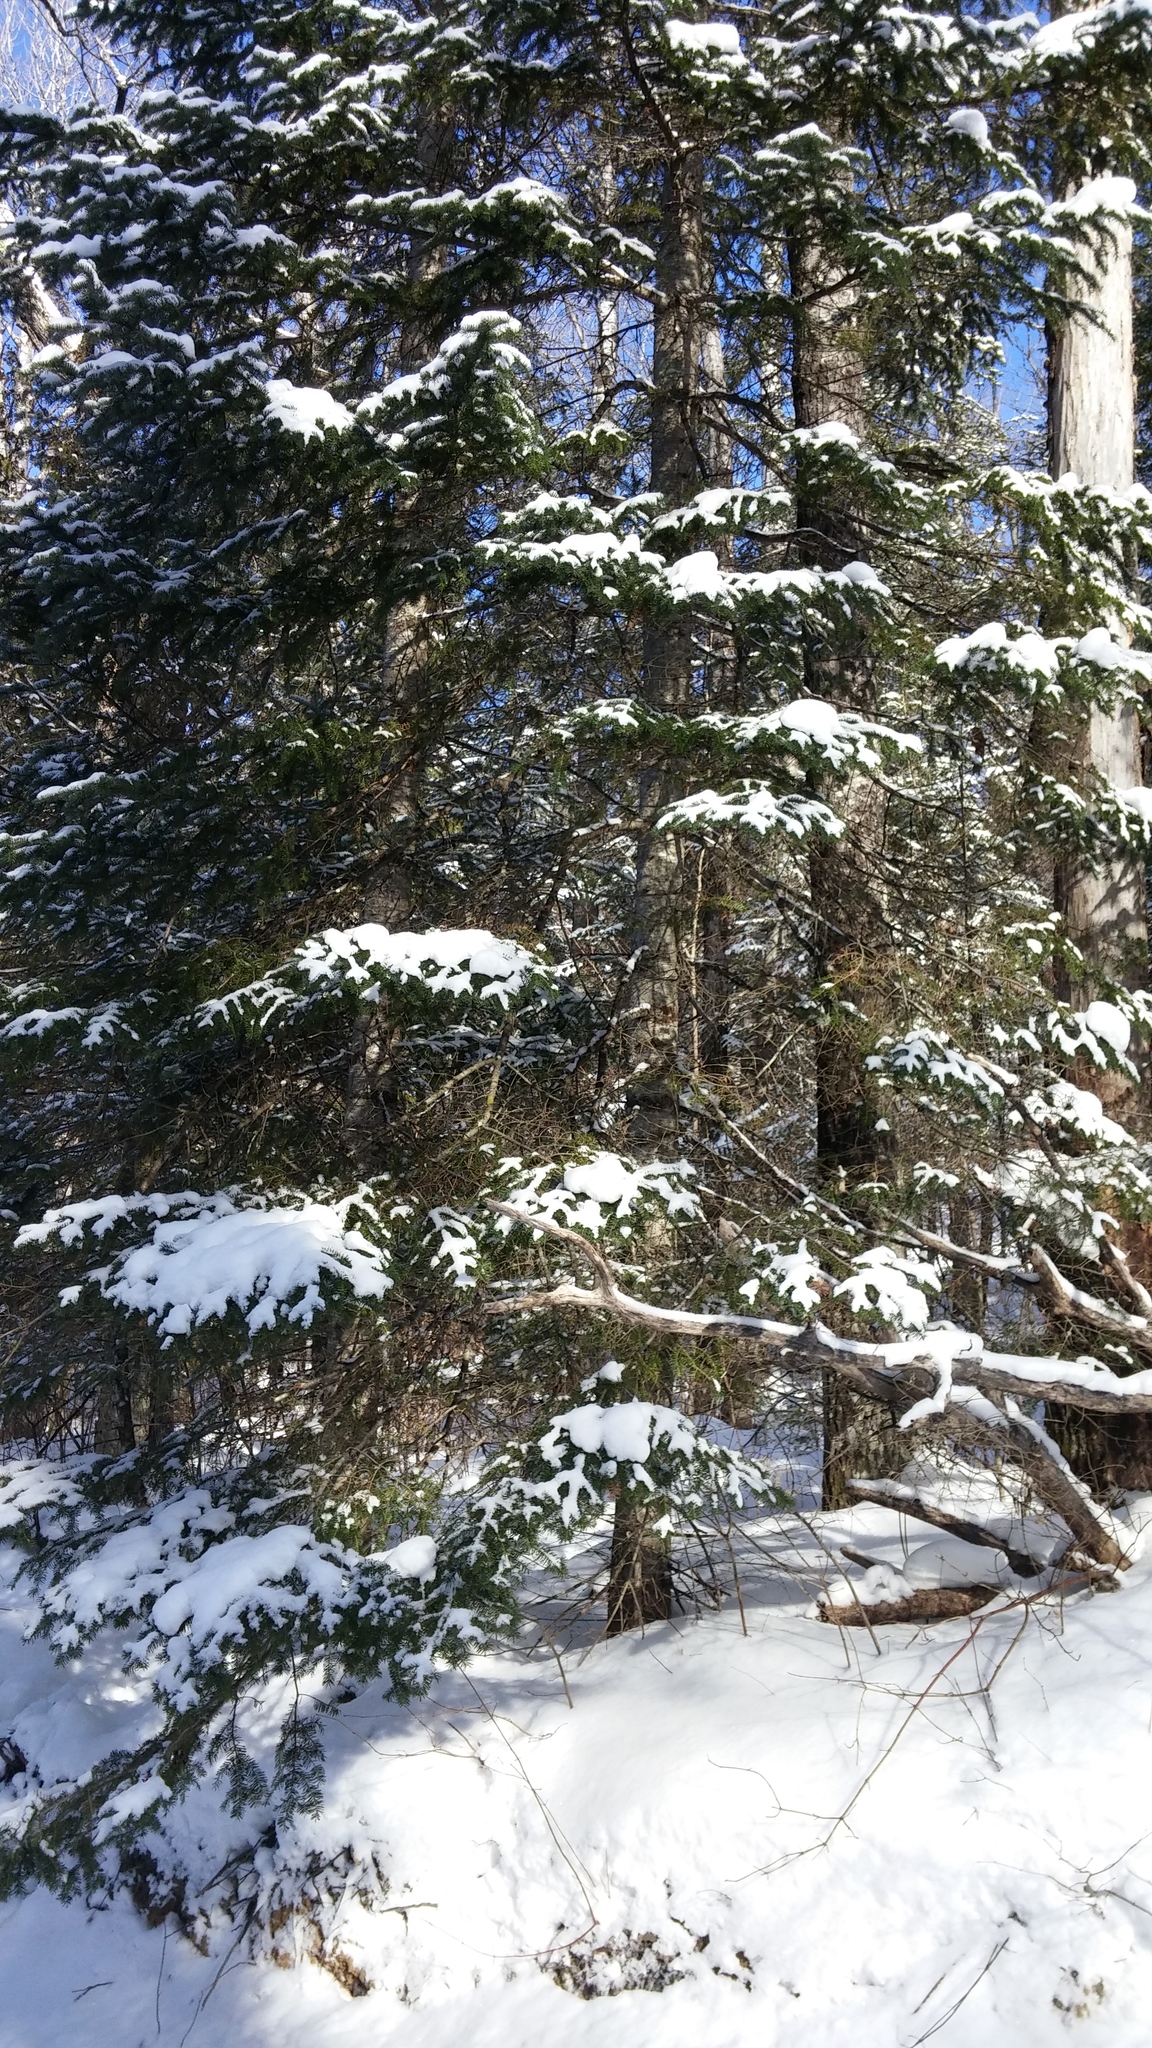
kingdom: Plantae
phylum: Tracheophyta
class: Pinopsida
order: Pinales
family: Pinaceae
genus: Abies
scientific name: Abies balsamea
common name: Balsam fir
